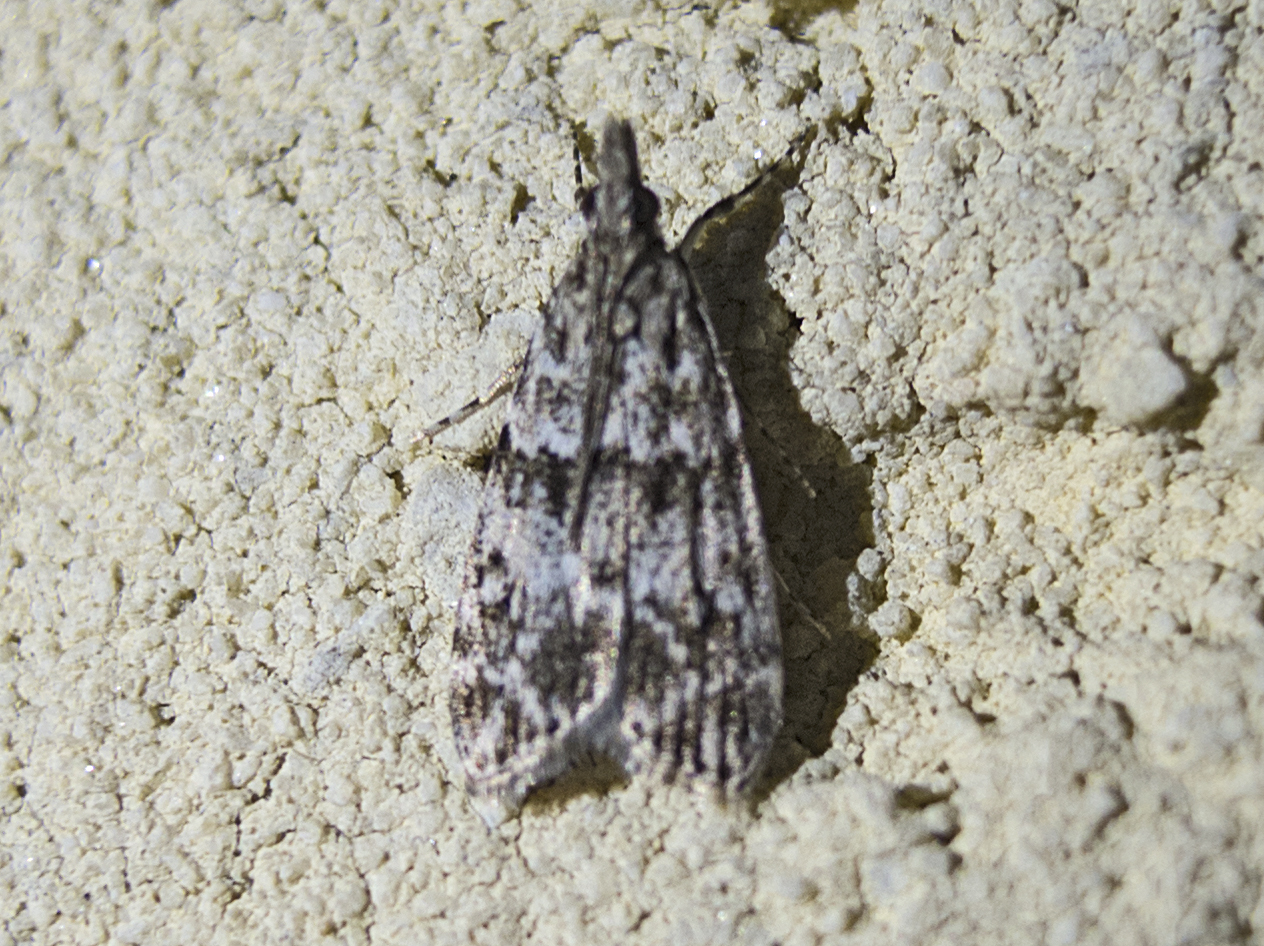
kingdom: Animalia
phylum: Arthropoda
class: Insecta
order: Lepidoptera
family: Crambidae
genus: Eudonia
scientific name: Eudonia mercurella
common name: Small grey
